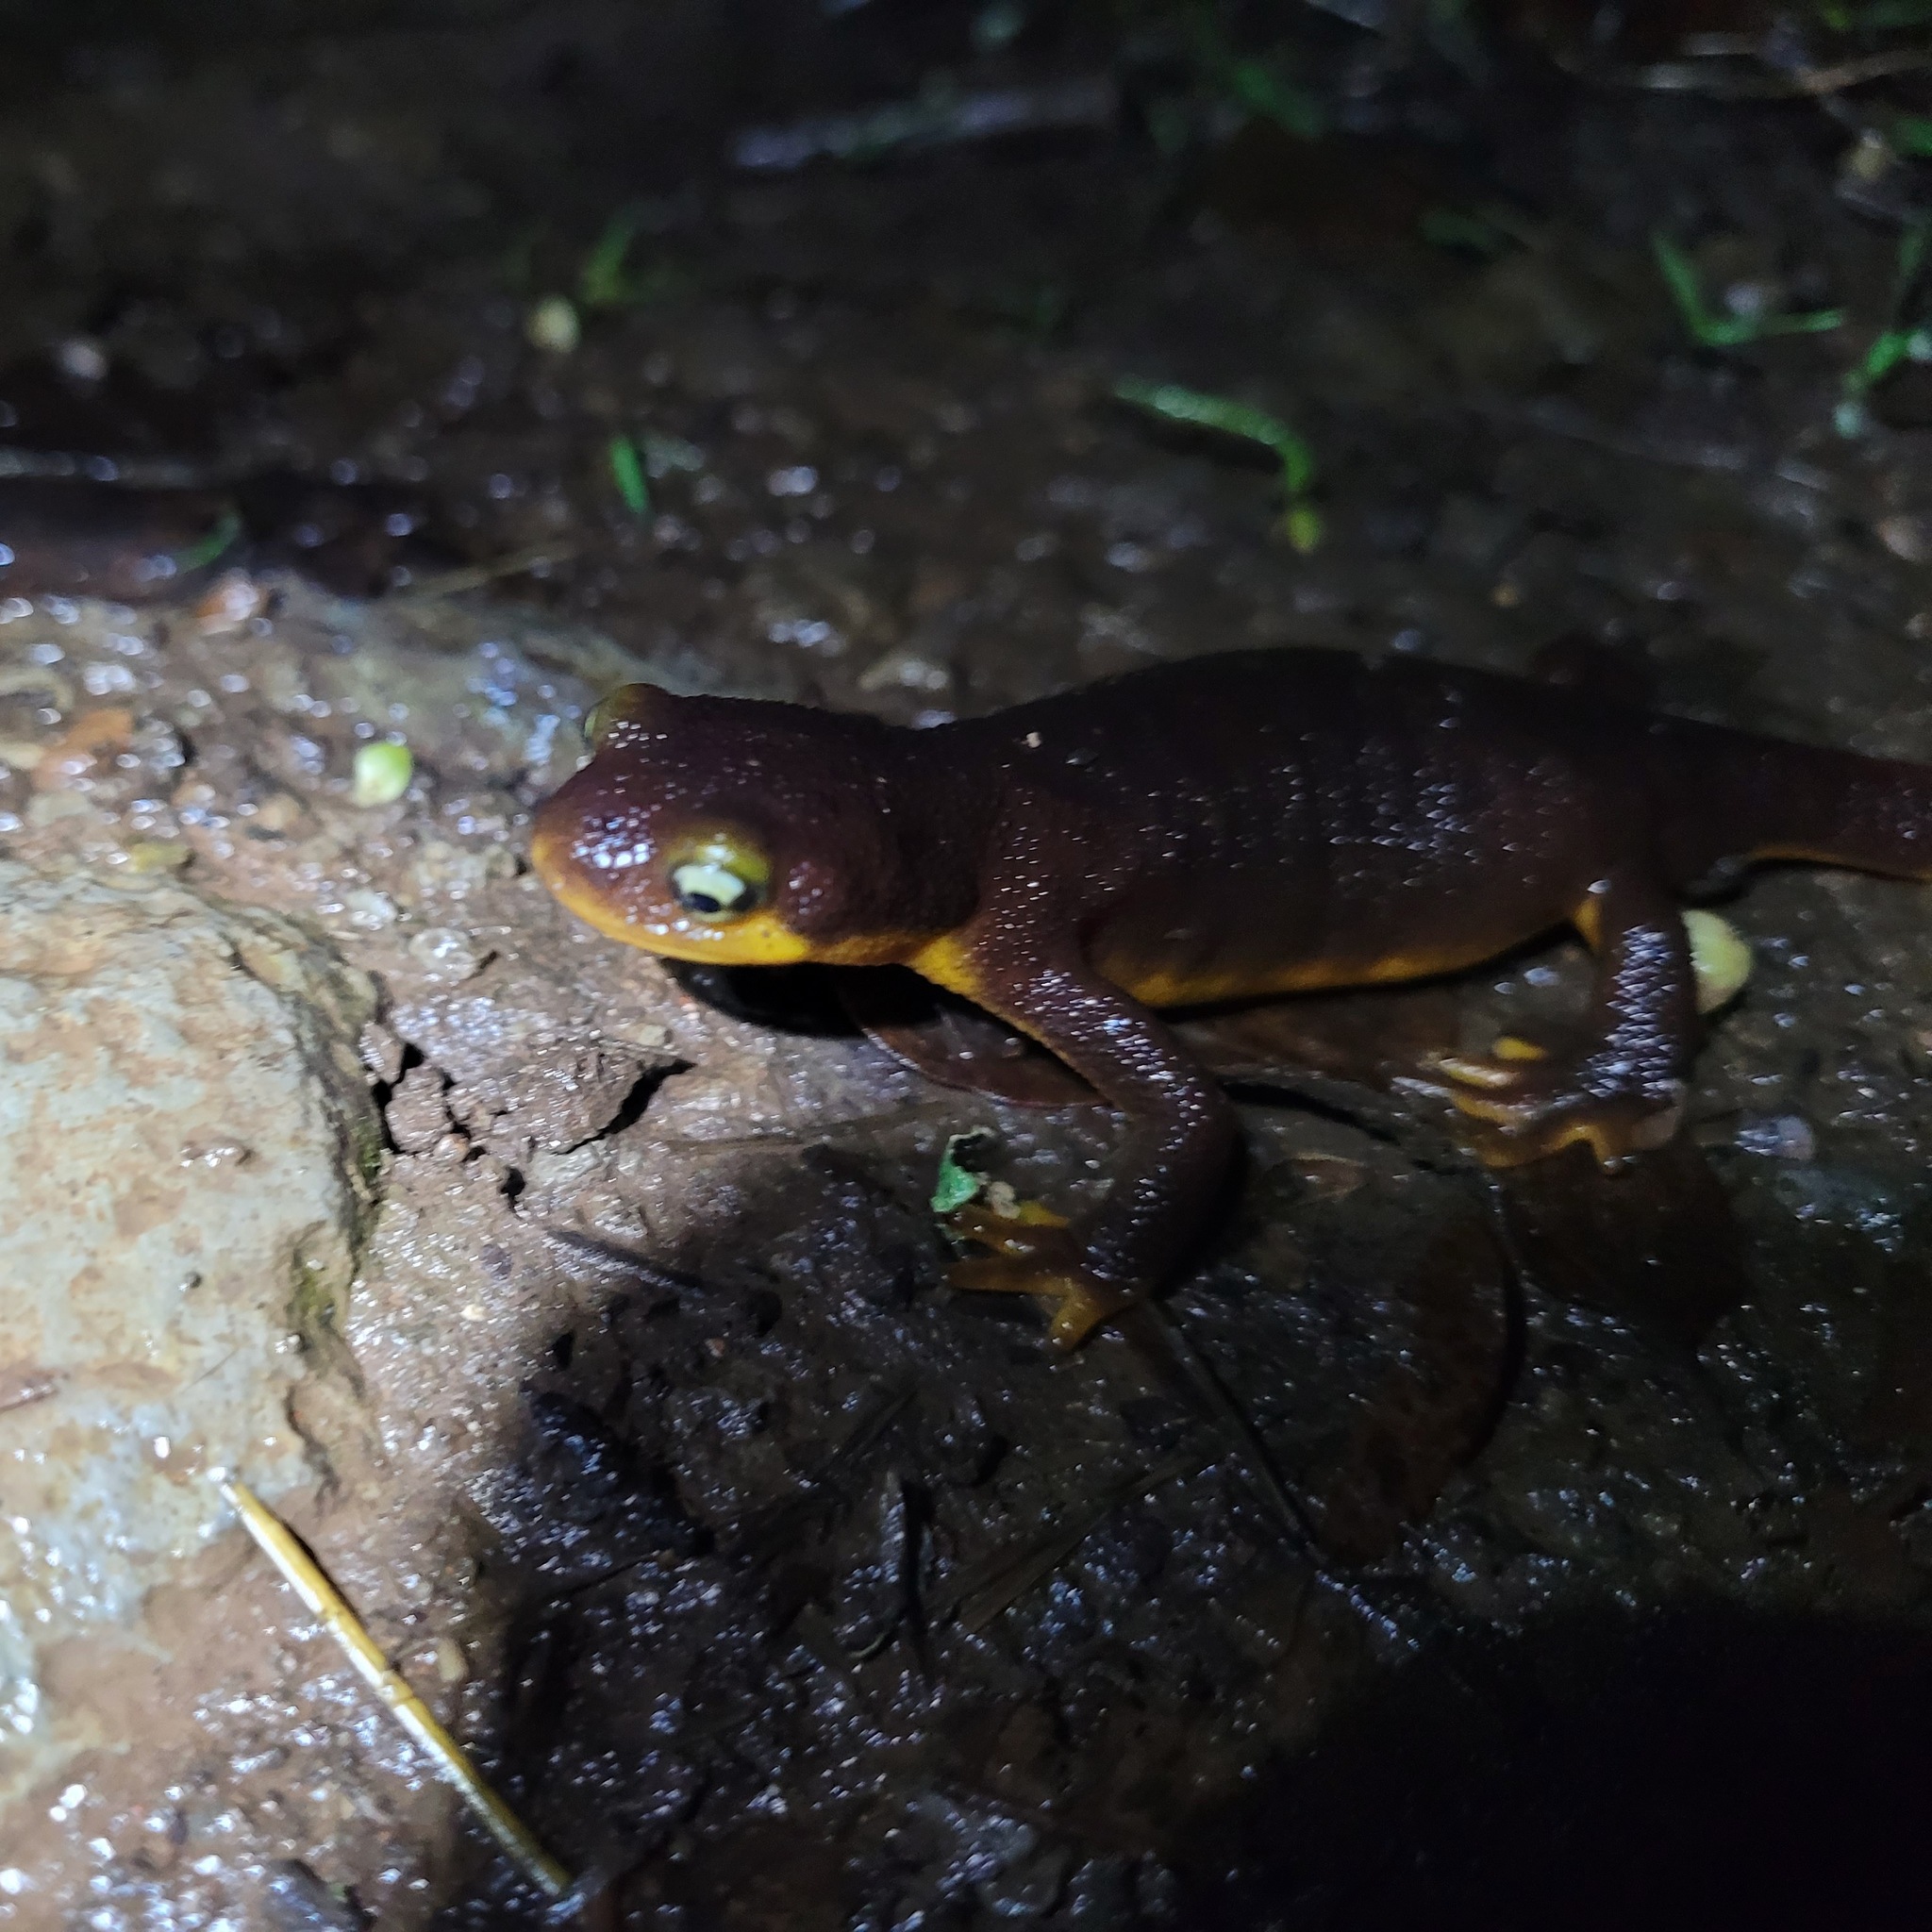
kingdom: Animalia
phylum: Chordata
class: Amphibia
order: Caudata
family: Salamandridae
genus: Taricha
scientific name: Taricha torosa
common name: California newt
